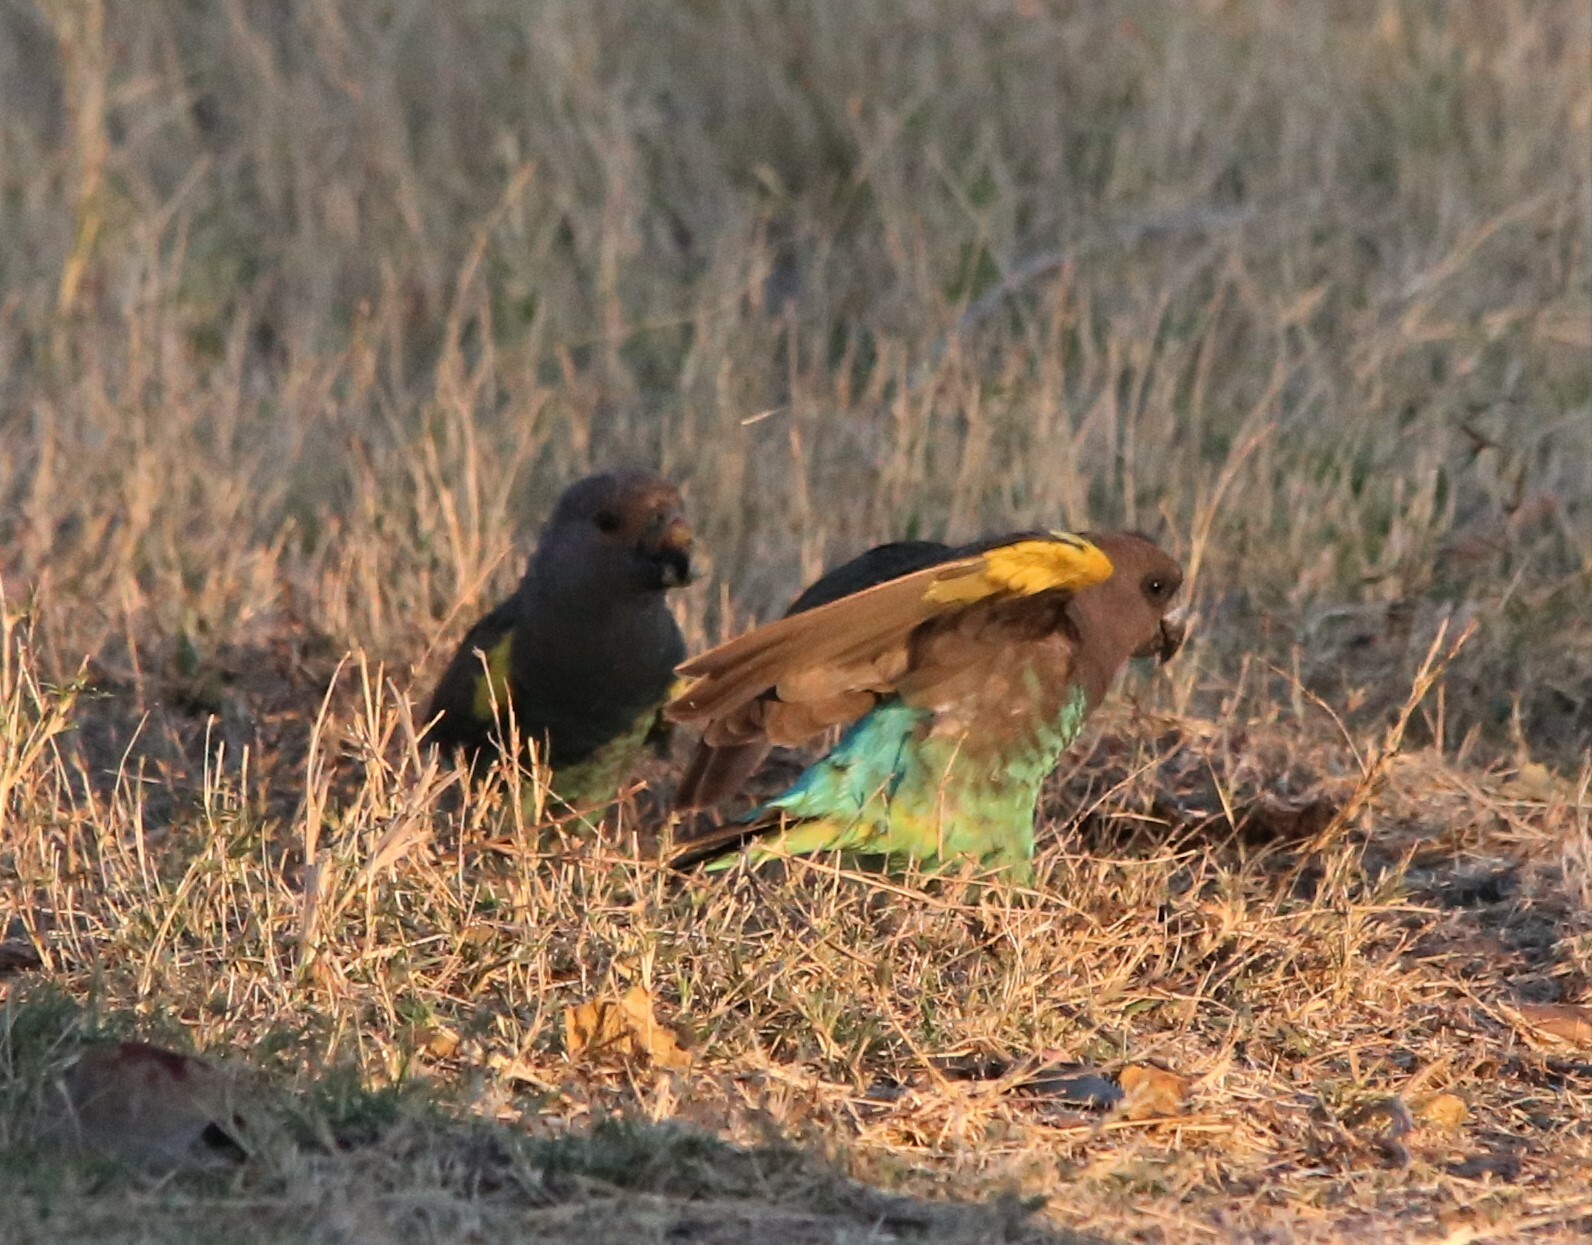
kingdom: Animalia
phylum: Chordata
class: Aves
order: Psittaciformes
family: Psittacidae
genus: Poicephalus
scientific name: Poicephalus meyeri
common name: Meyer's parrot
